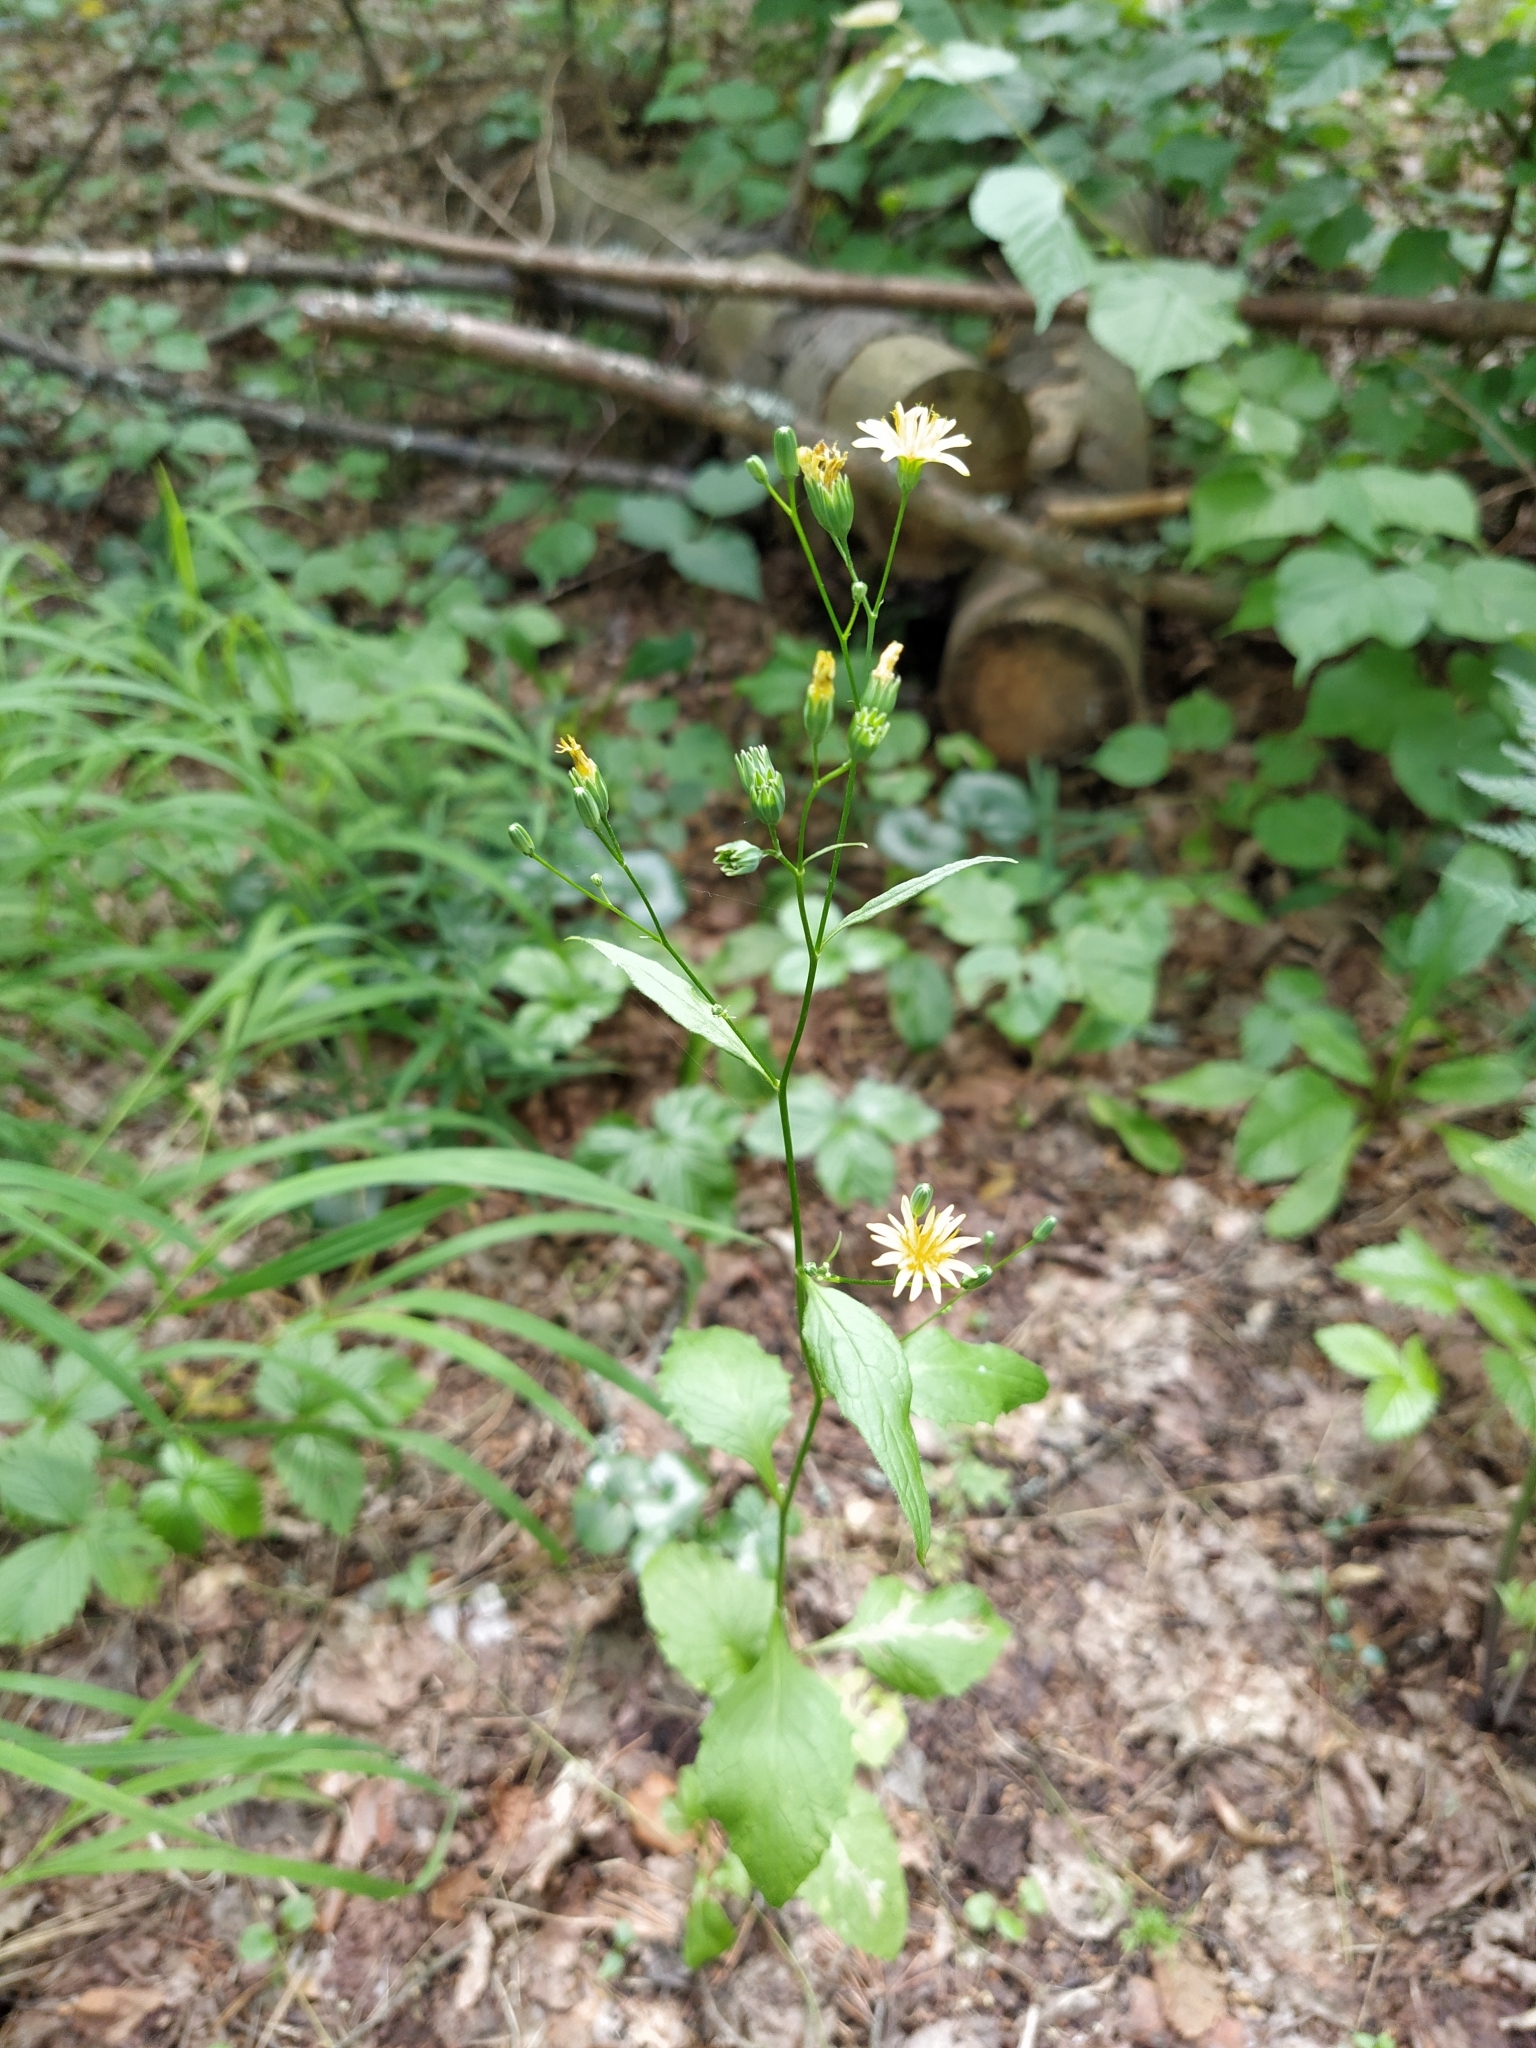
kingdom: Plantae
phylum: Tracheophyta
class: Magnoliopsida
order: Asterales
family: Asteraceae
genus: Lapsana
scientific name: Lapsana communis
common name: Nipplewort
